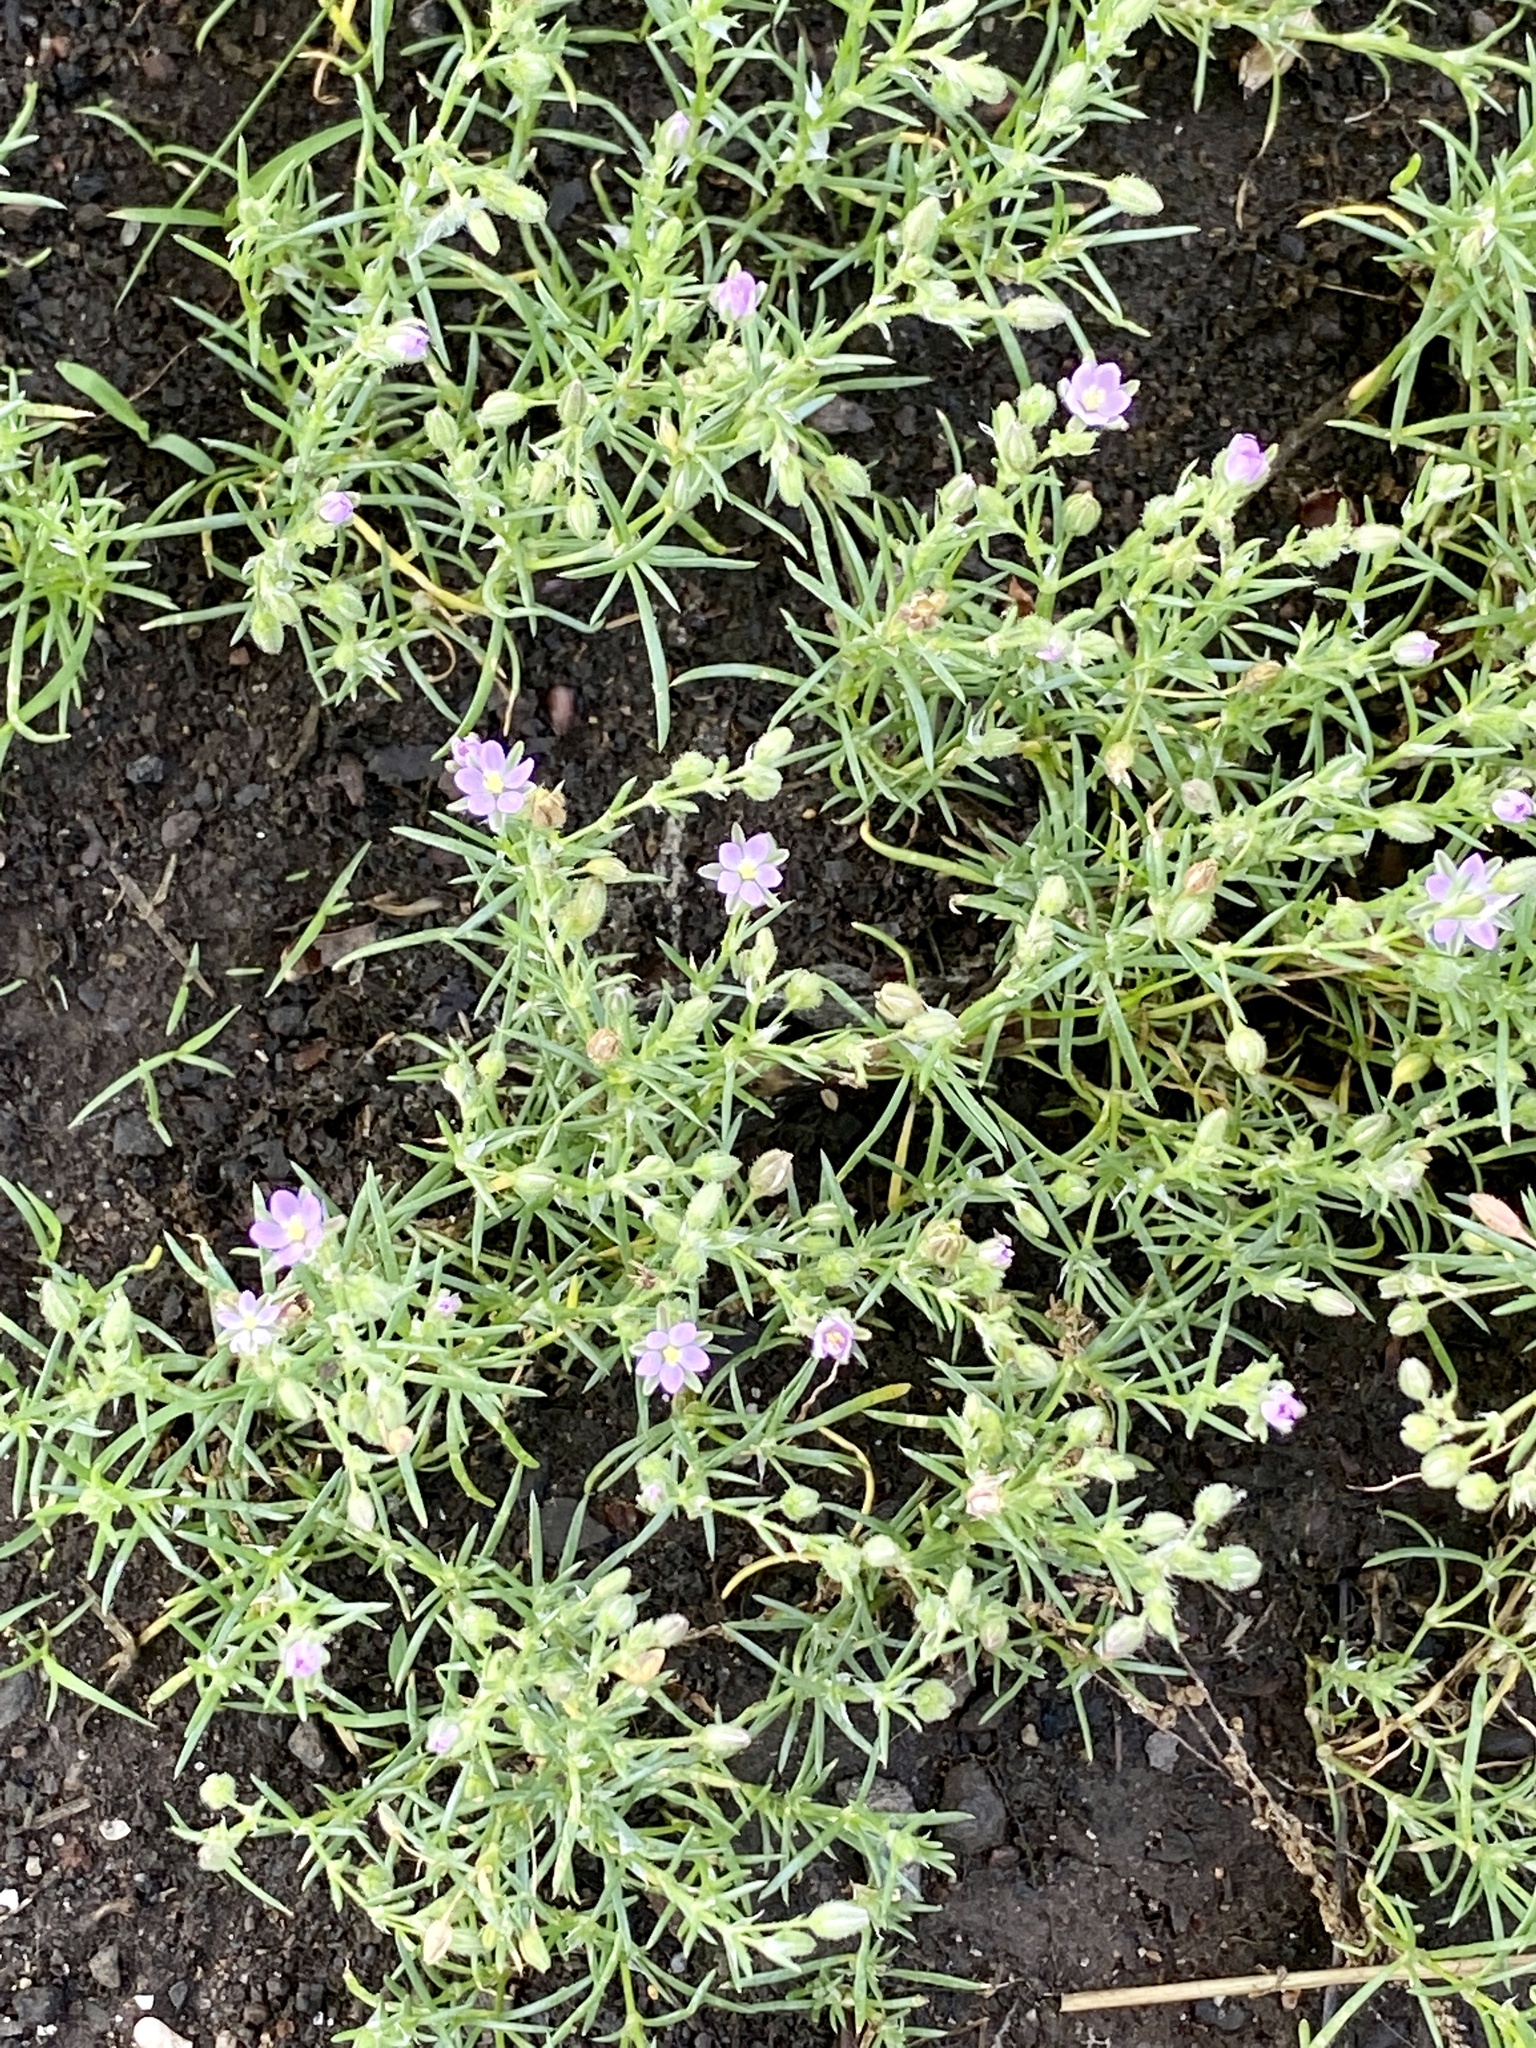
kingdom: Plantae
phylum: Tracheophyta
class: Magnoliopsida
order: Caryophyllales
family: Caryophyllaceae
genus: Spergularia
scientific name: Spergularia rubra
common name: Red sand-spurrey
